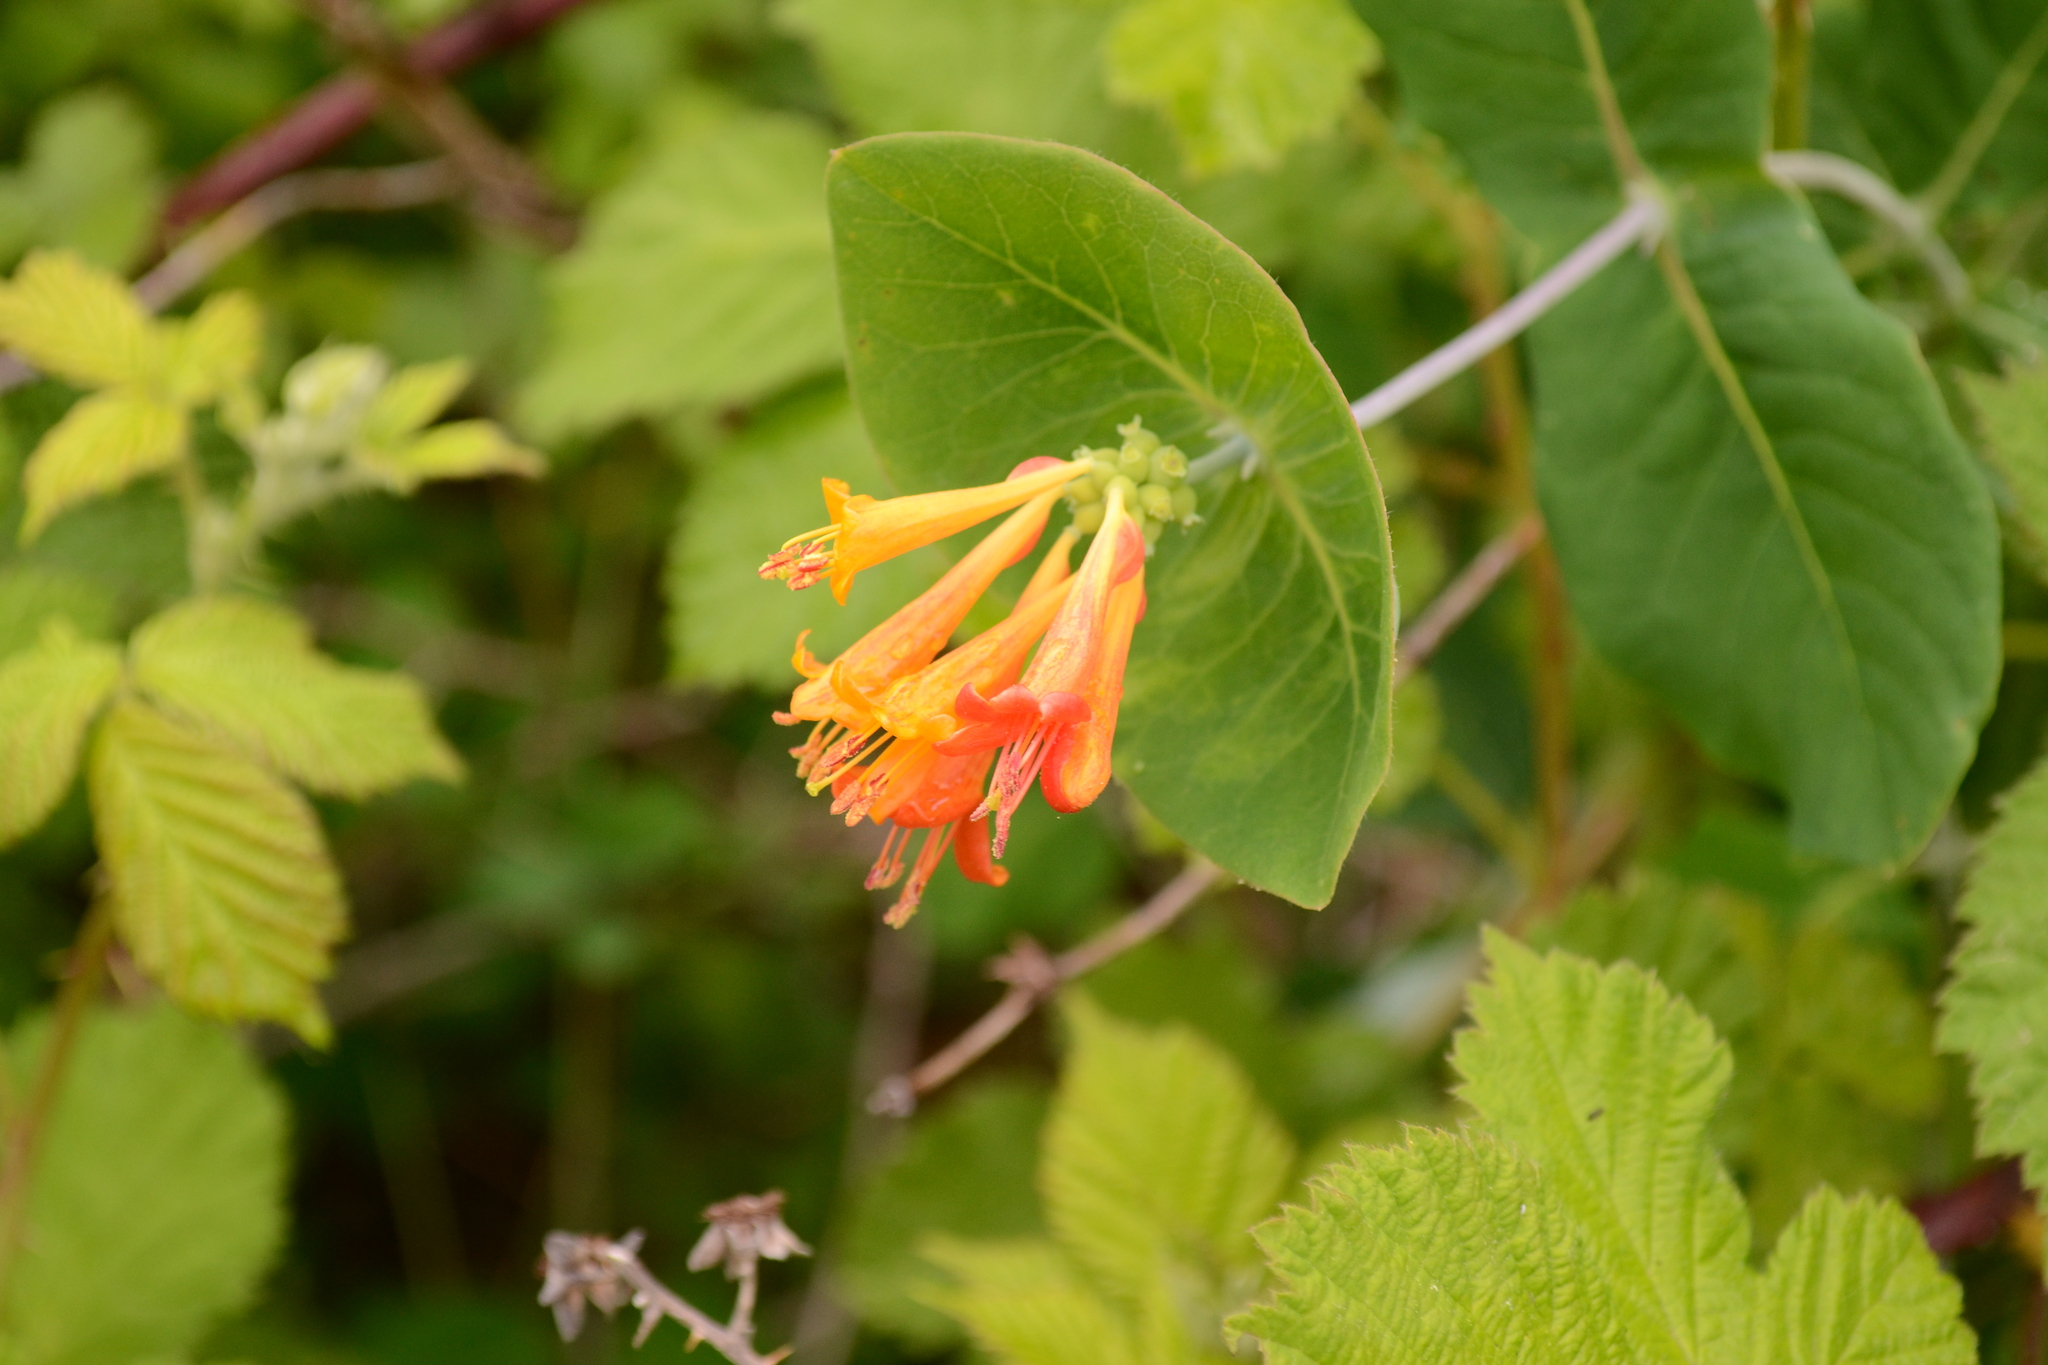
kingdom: Plantae
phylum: Tracheophyta
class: Magnoliopsida
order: Dipsacales
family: Caprifoliaceae
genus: Lonicera
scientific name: Lonicera ciliosa
